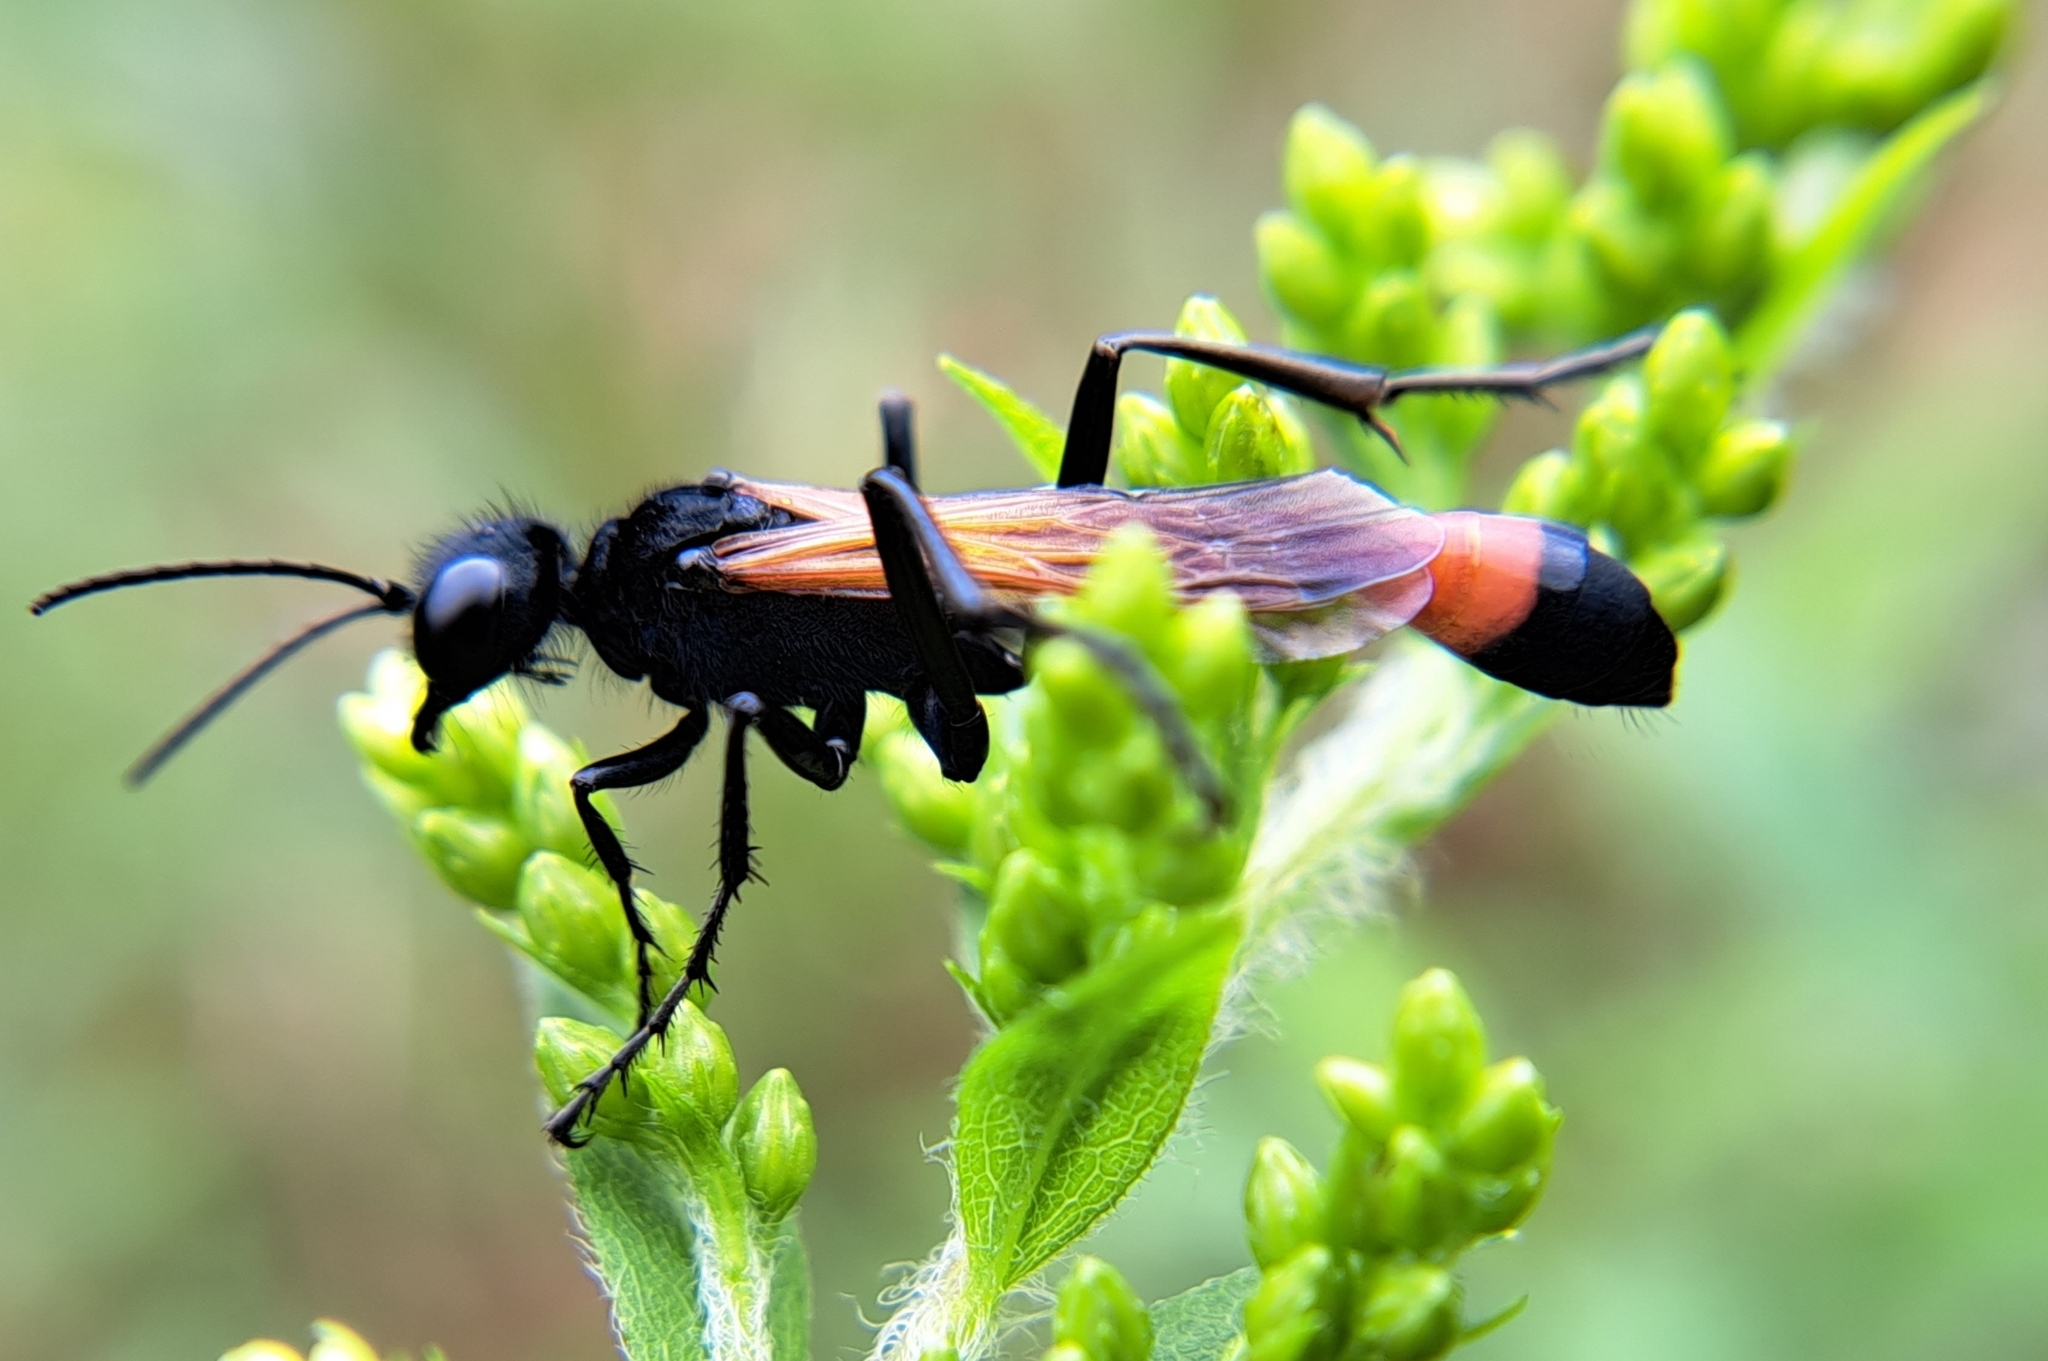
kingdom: Animalia
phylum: Arthropoda
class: Insecta
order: Hymenoptera
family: Sphecidae
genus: Ammophila
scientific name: Ammophila pictipennis
